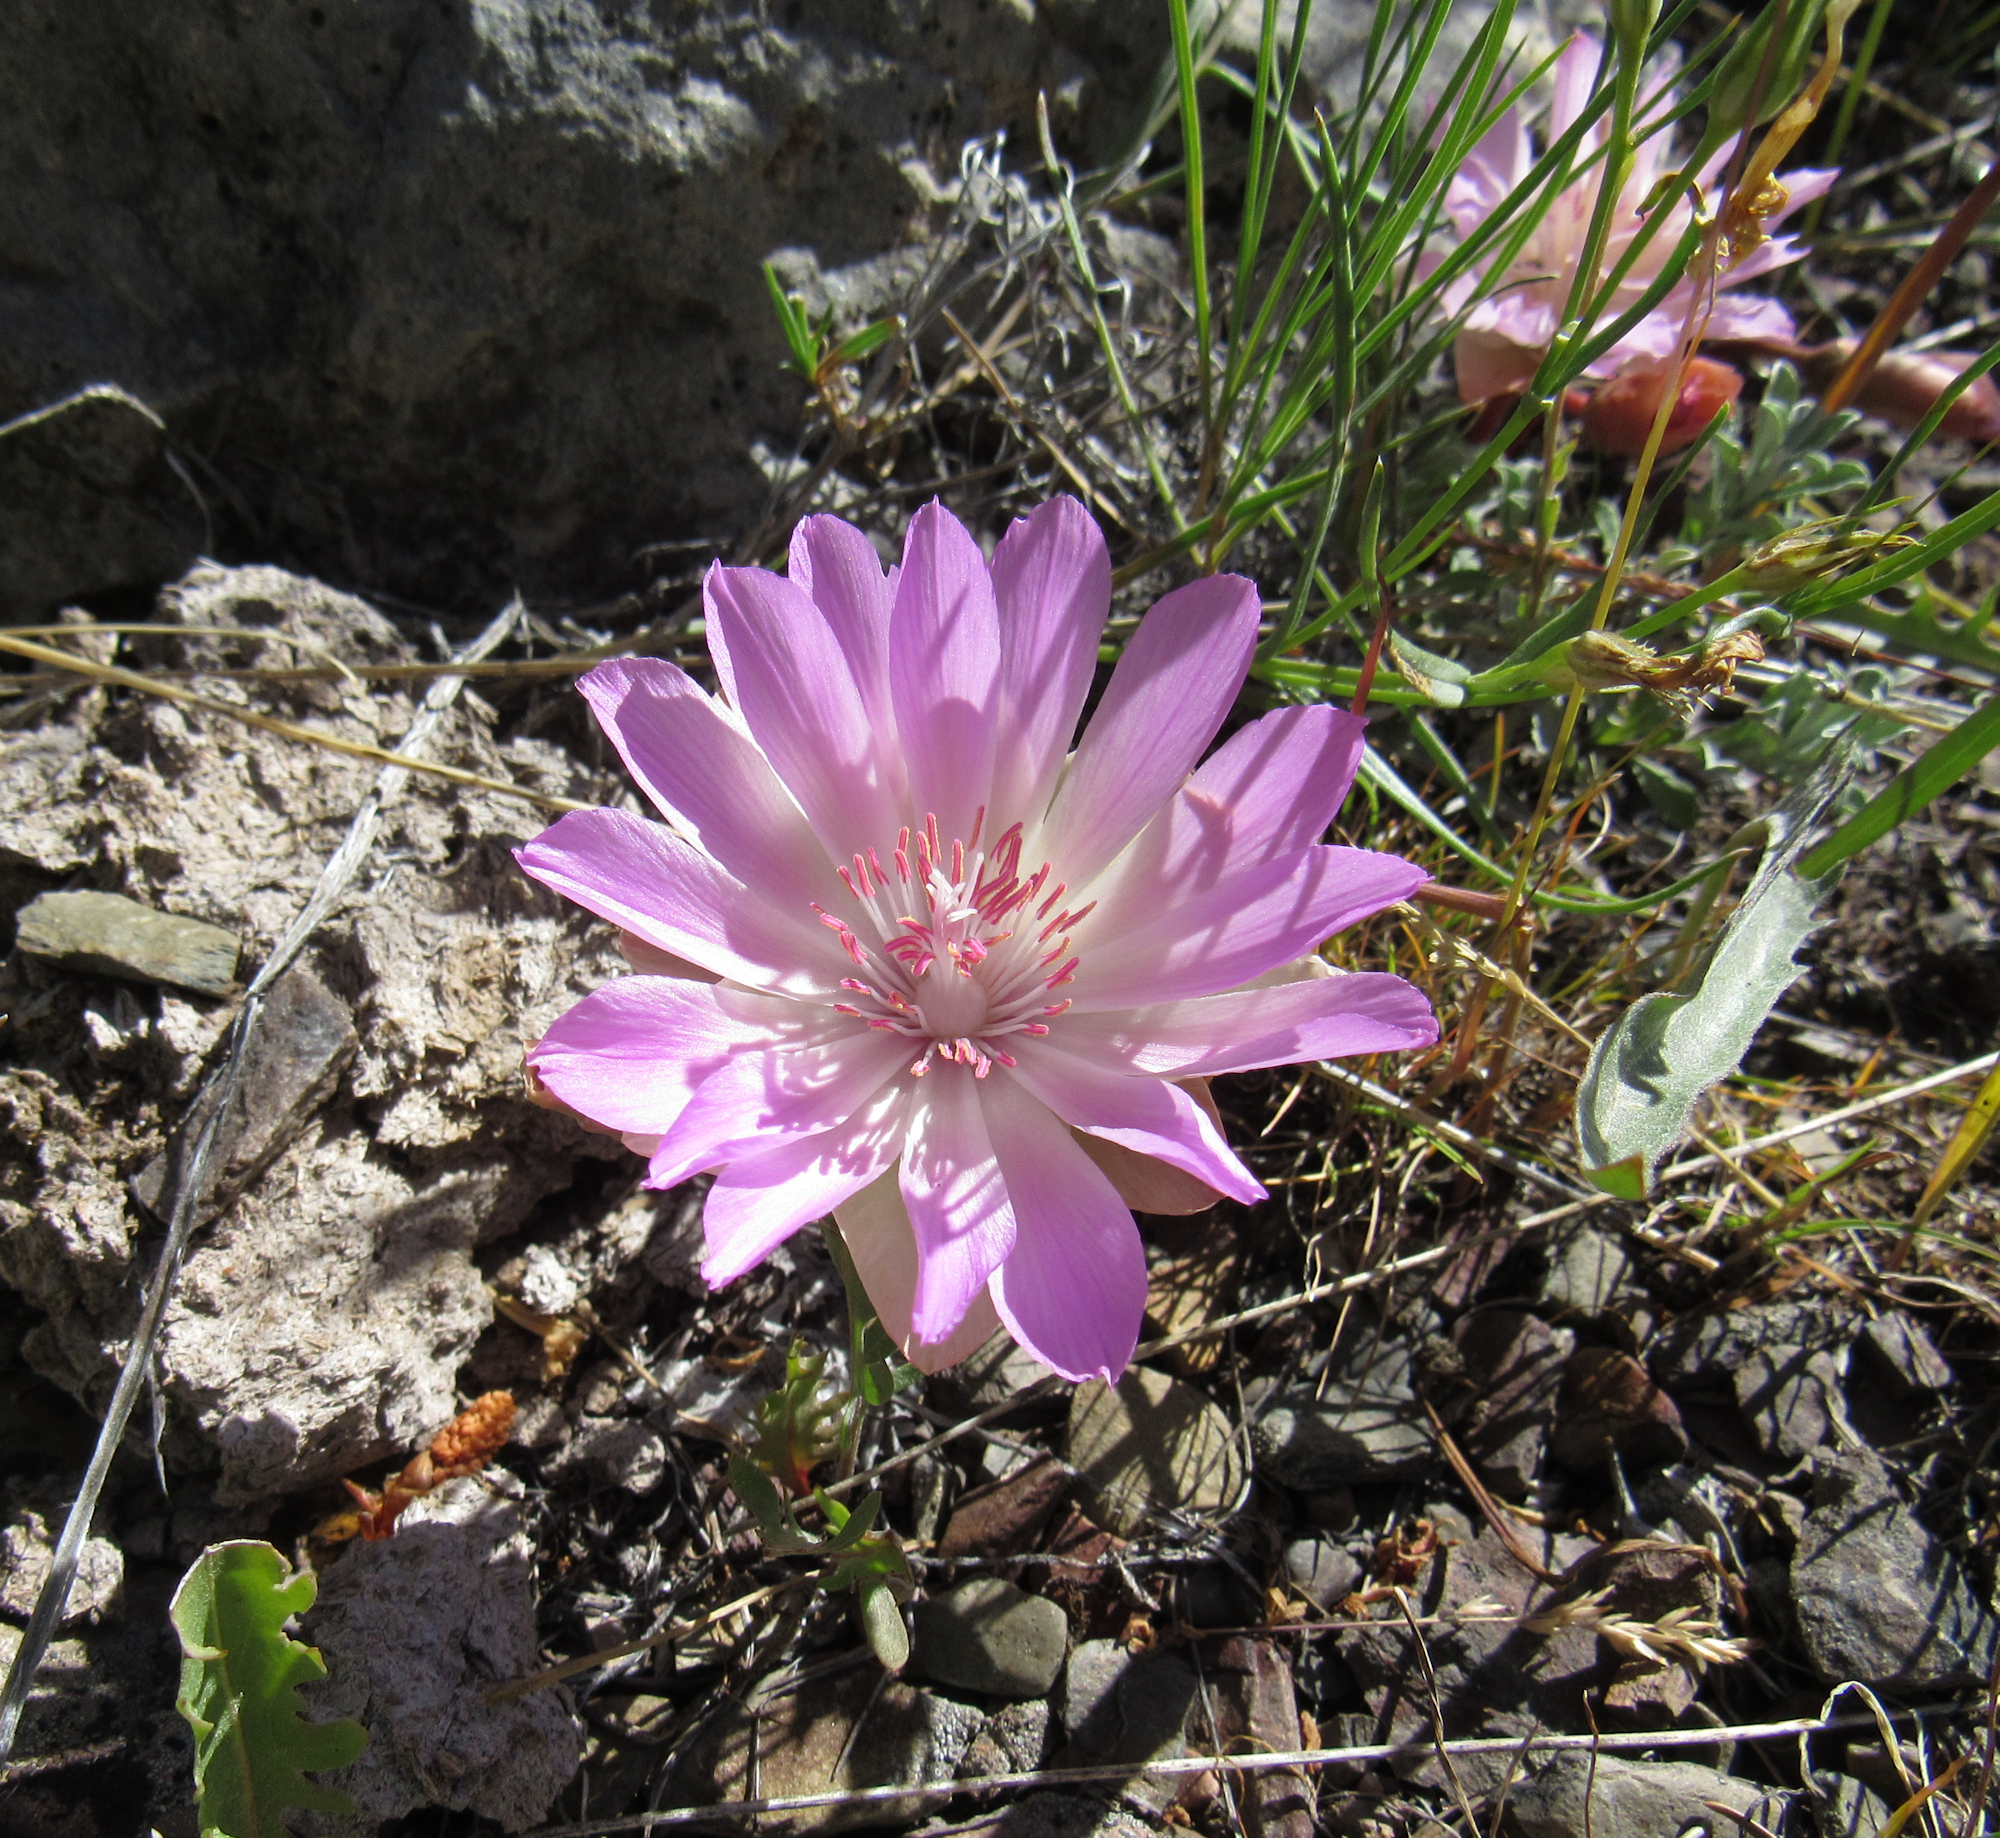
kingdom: Plantae
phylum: Tracheophyta
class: Magnoliopsida
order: Caryophyllales
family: Montiaceae
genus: Lewisia
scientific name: Lewisia rediviva
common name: Bitter-root
